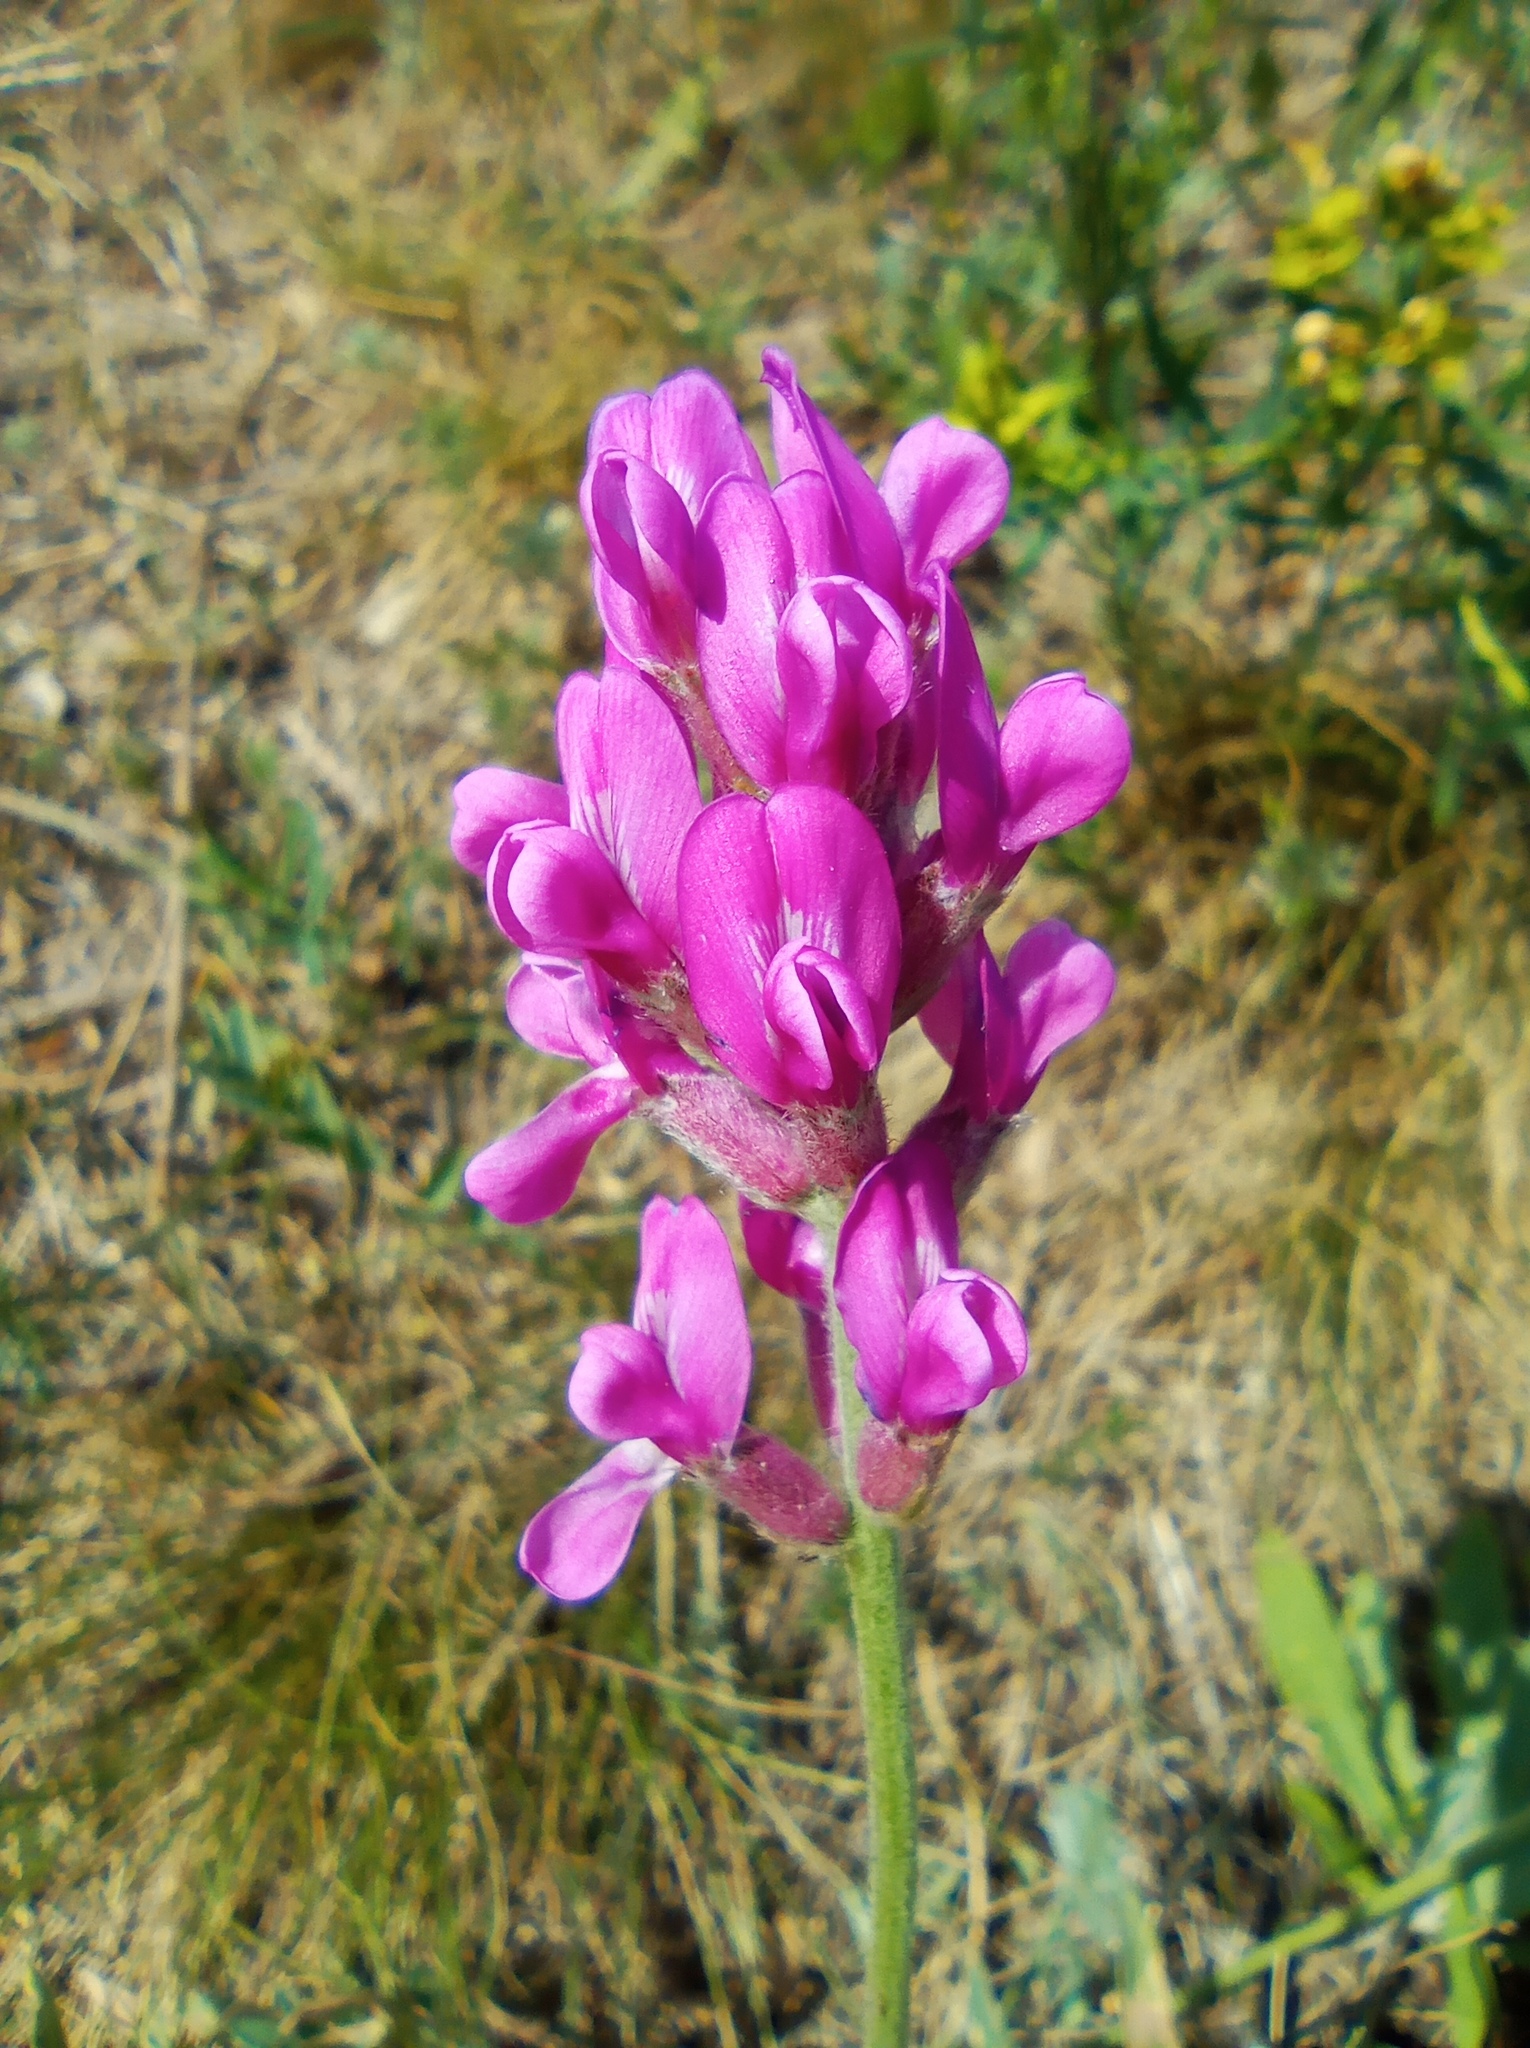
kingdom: Plantae
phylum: Tracheophyta
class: Magnoliopsida
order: Fabales
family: Fabaceae
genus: Oxytropis
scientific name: Oxytropis knjazevii
